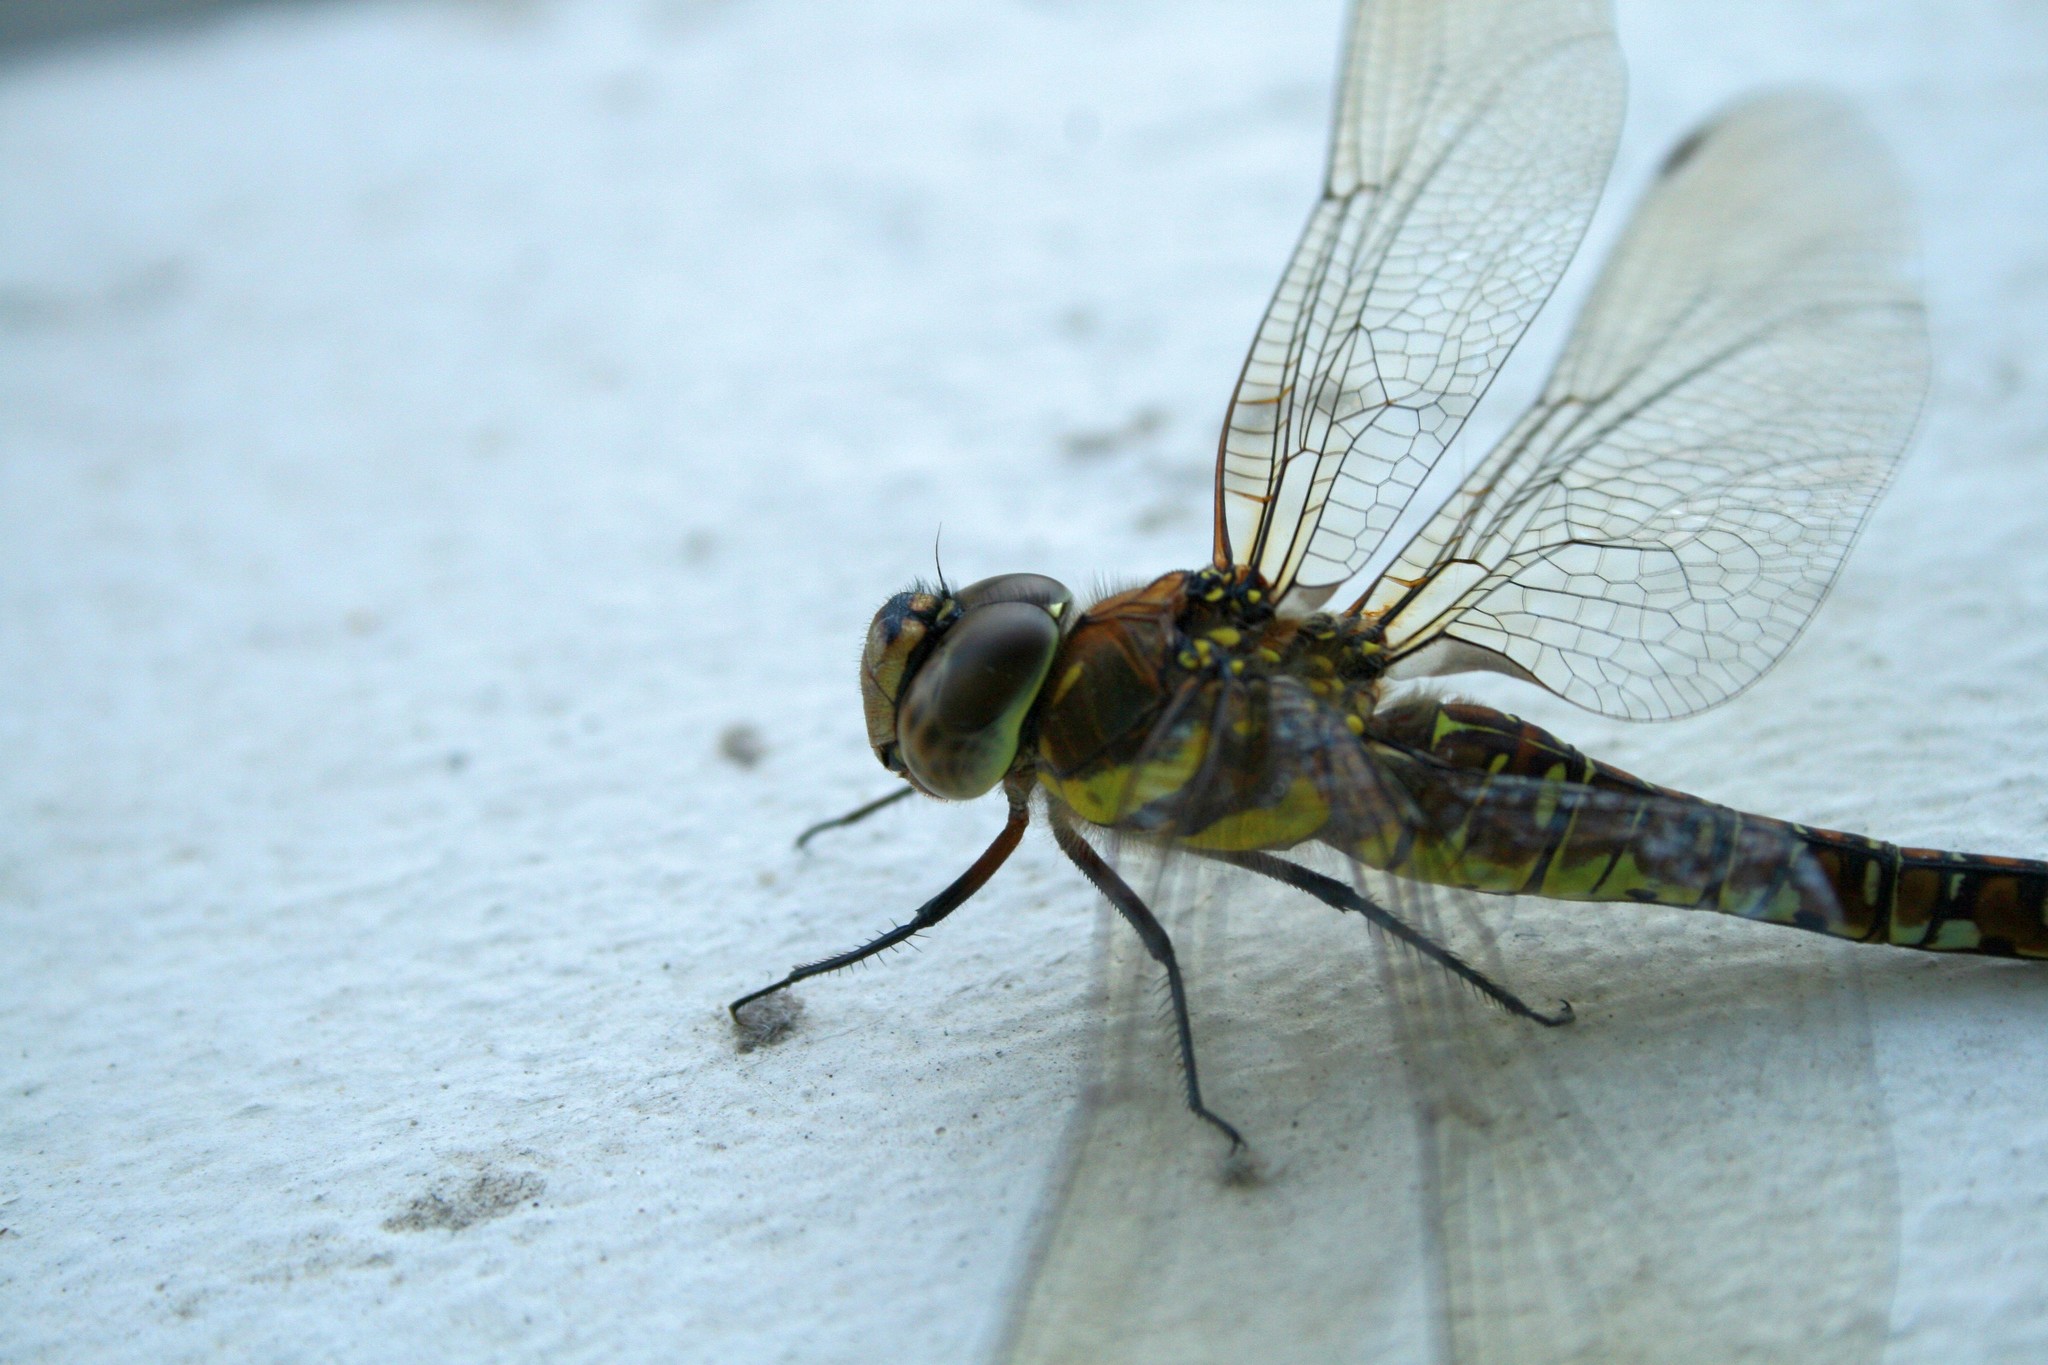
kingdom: Animalia
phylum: Arthropoda
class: Insecta
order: Odonata
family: Aeshnidae
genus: Aeshna
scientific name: Aeshna mixta
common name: Migrant hawker
